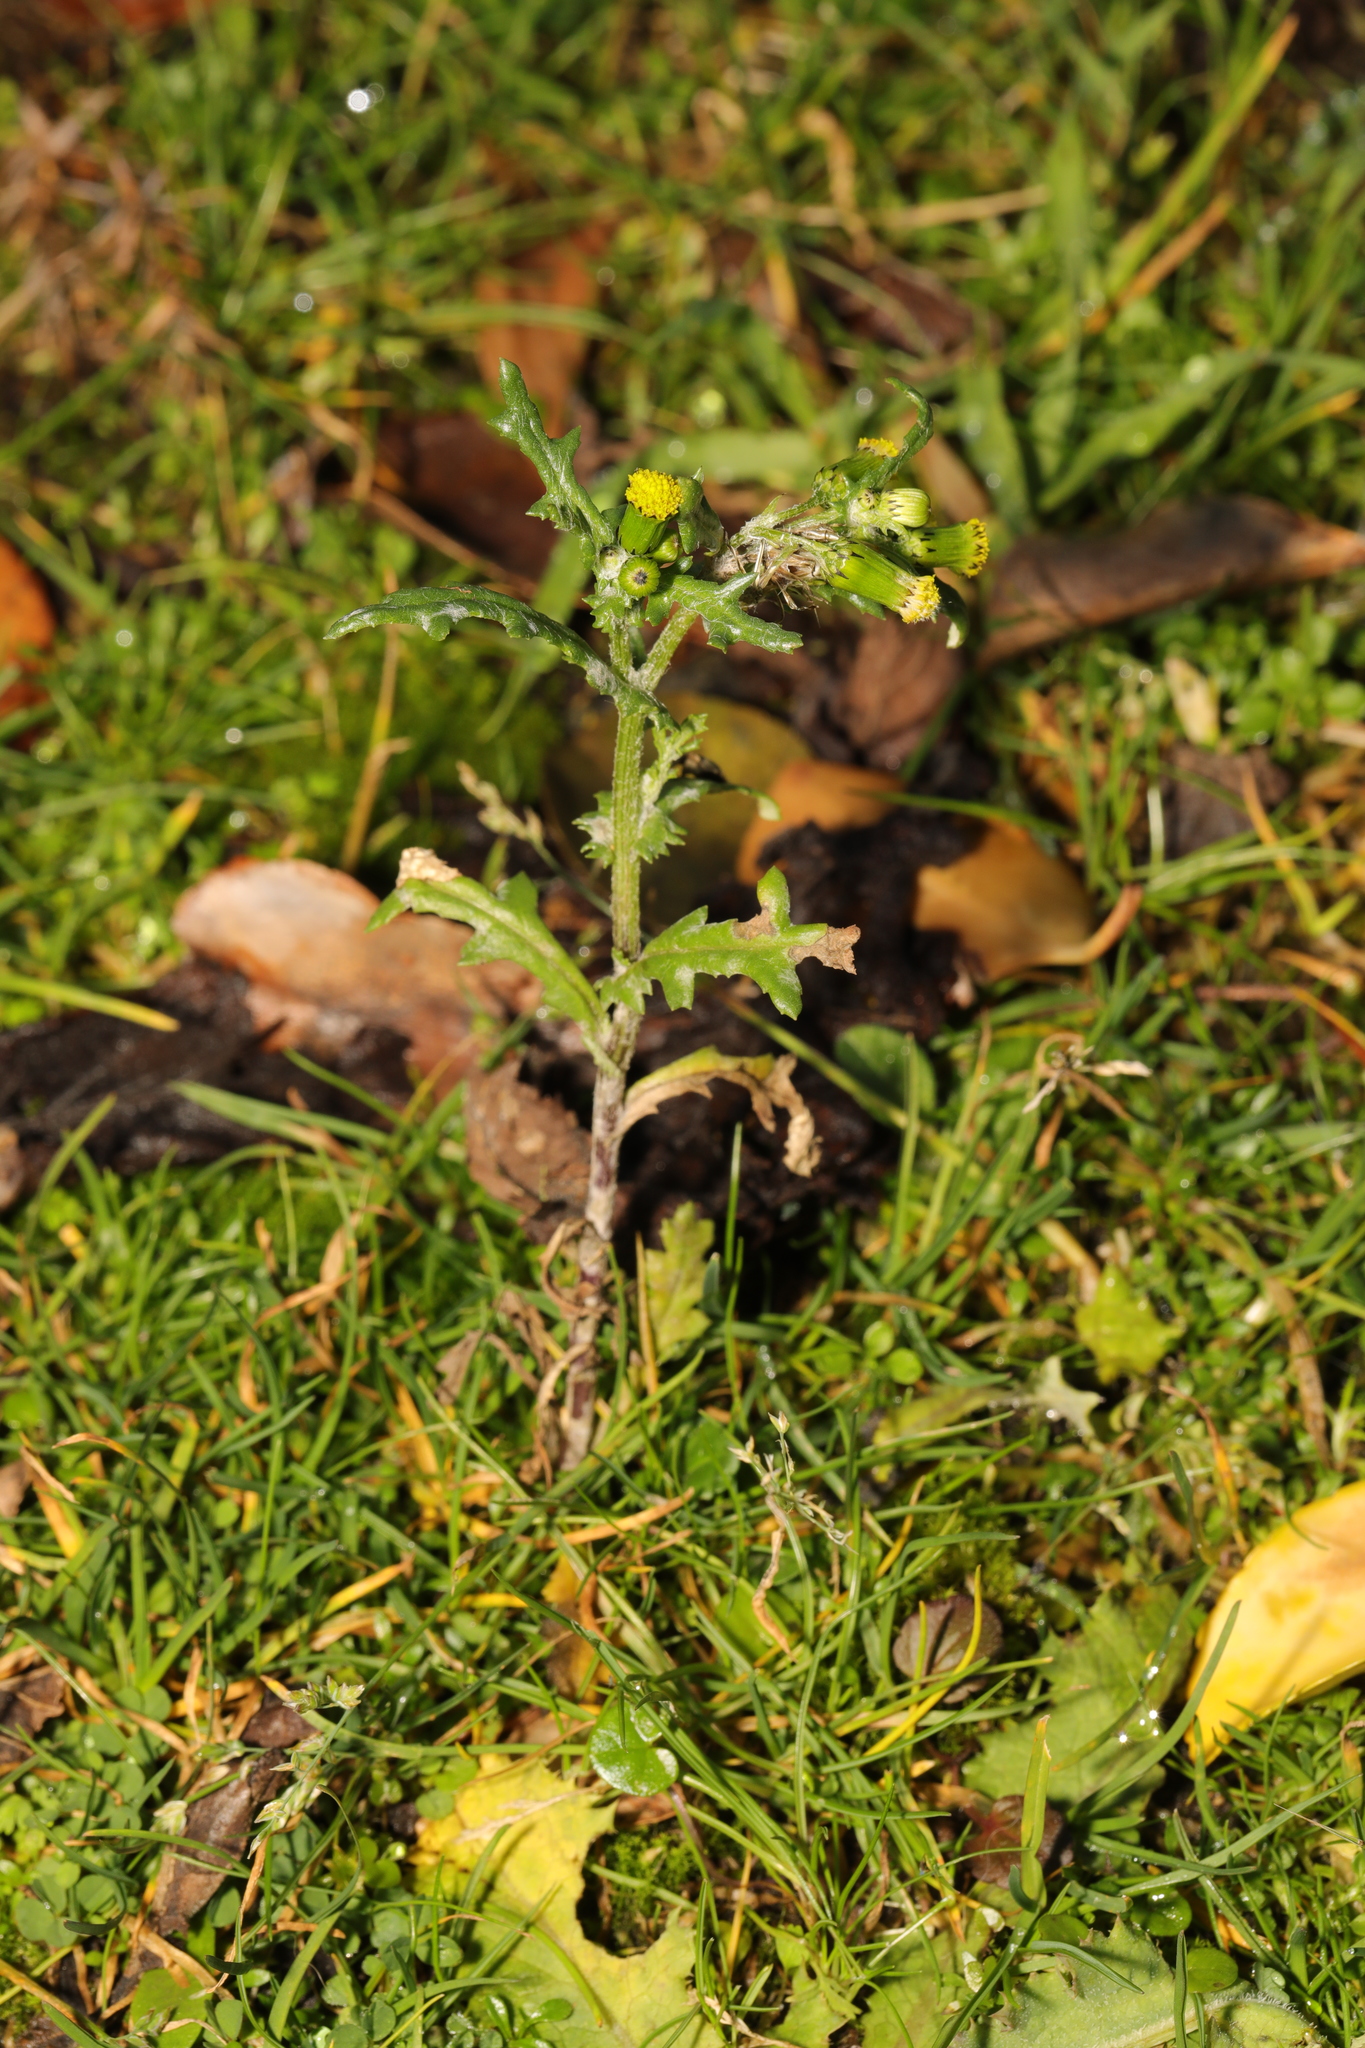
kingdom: Plantae
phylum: Tracheophyta
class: Magnoliopsida
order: Asterales
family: Asteraceae
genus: Senecio
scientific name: Senecio vulgaris
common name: Old-man-in-the-spring
